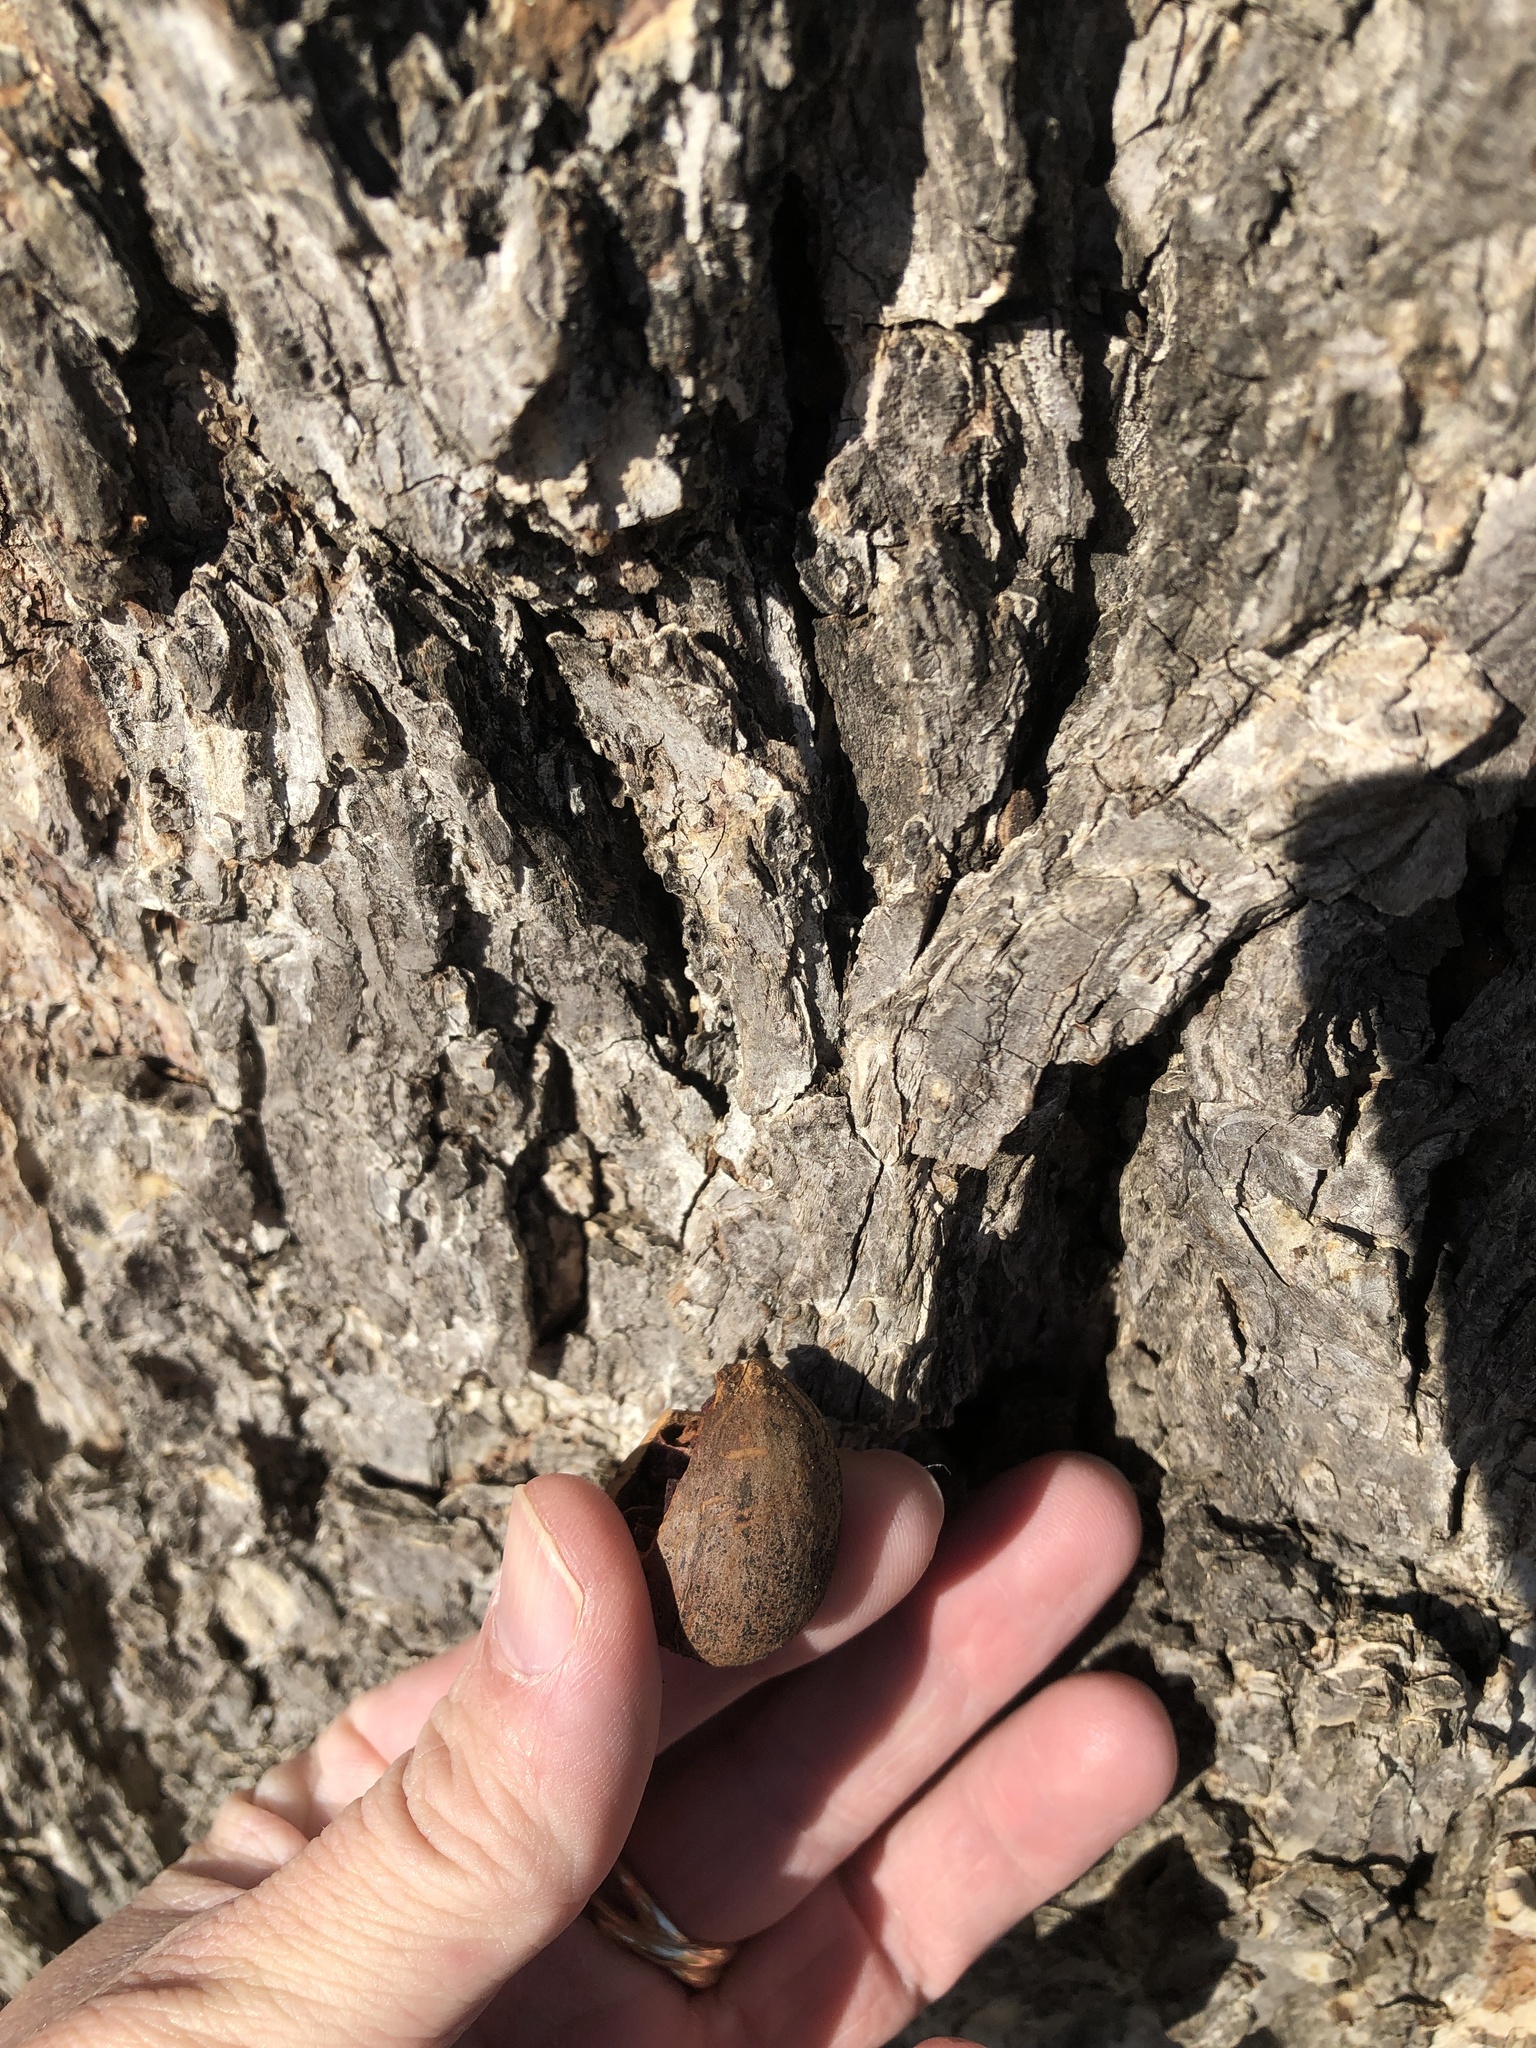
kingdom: Plantae
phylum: Tracheophyta
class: Magnoliopsida
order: Fagales
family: Juglandaceae
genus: Carya
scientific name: Carya illinoinensis
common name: Pecan
